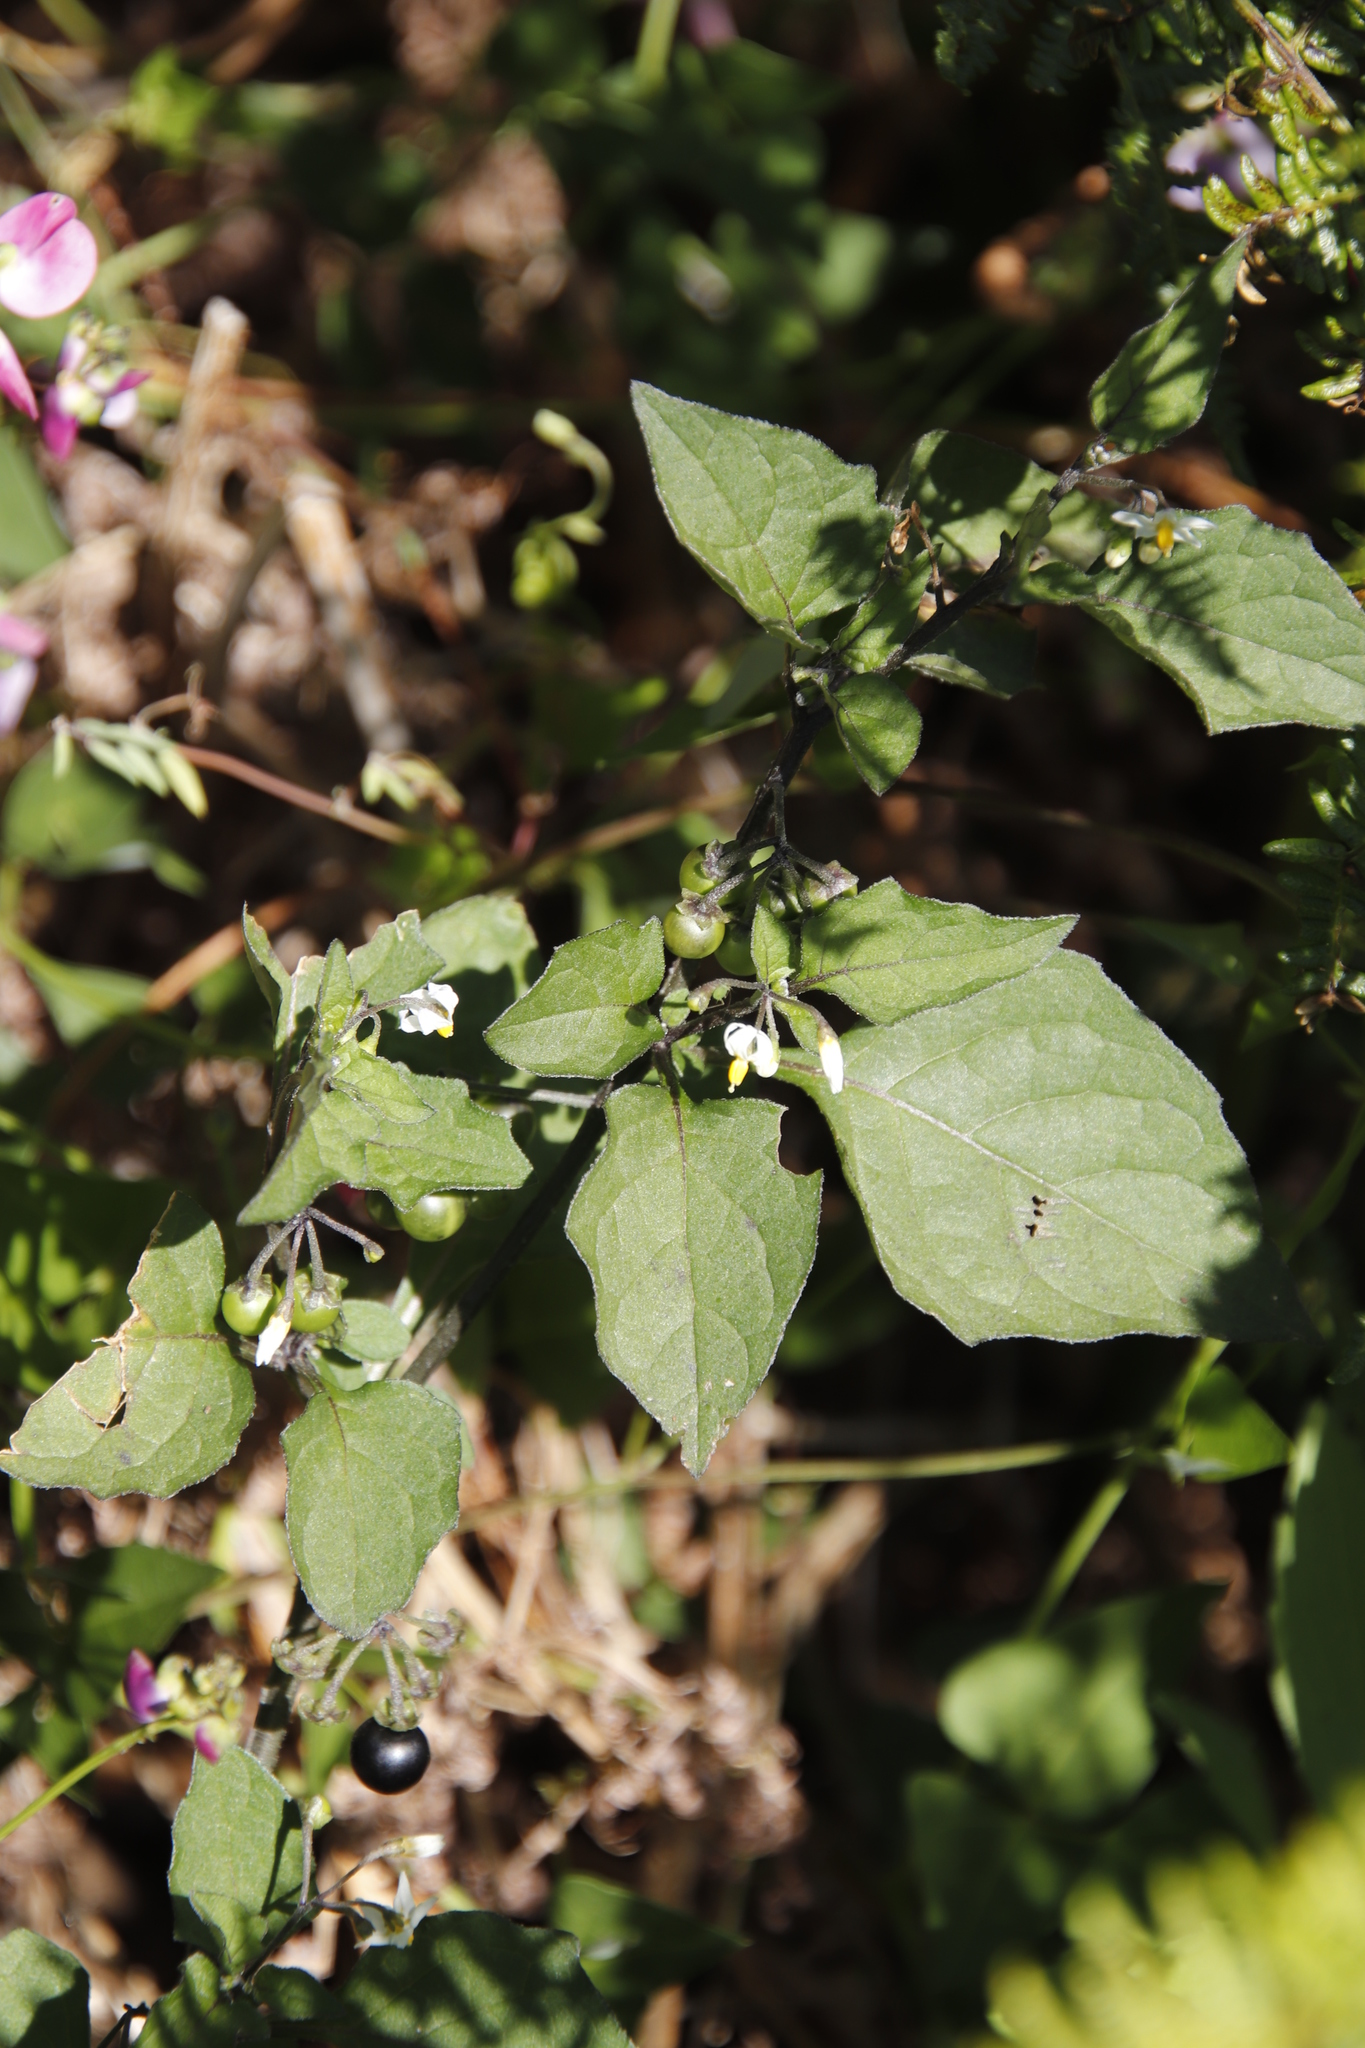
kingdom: Plantae
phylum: Tracheophyta
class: Magnoliopsida
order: Solanales
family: Solanaceae
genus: Solanum
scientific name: Solanum nigrum
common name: Black nightshade
